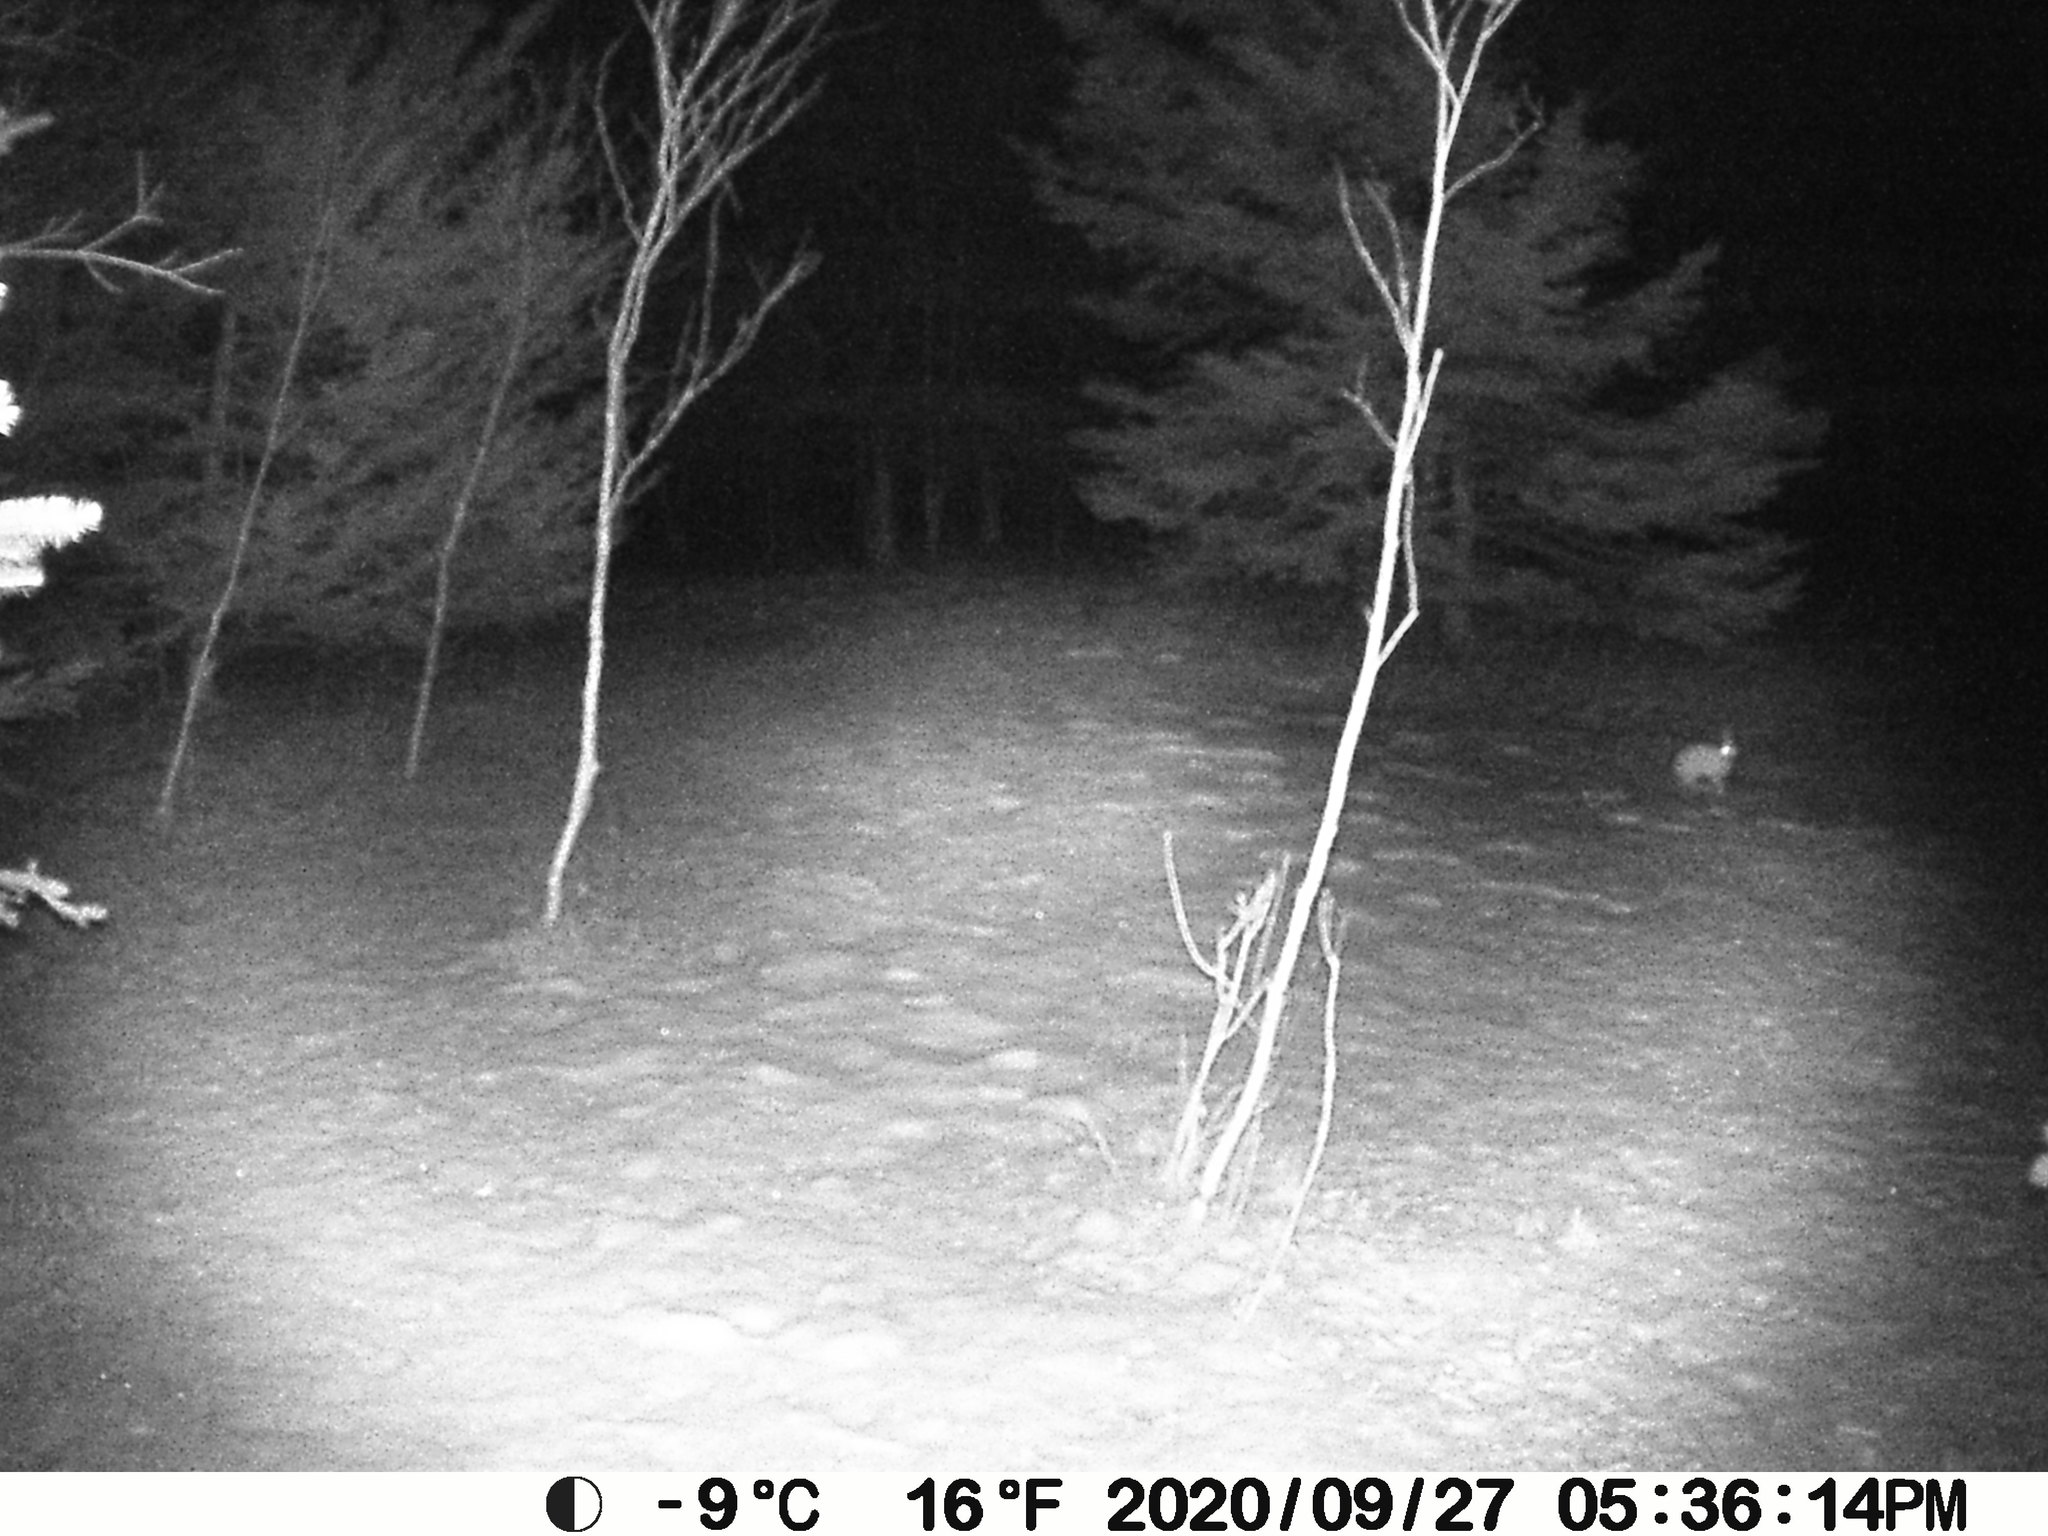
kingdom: Animalia
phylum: Chordata
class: Mammalia
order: Lagomorpha
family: Leporidae
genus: Lepus
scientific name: Lepus americanus
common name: Snowshoe hare
